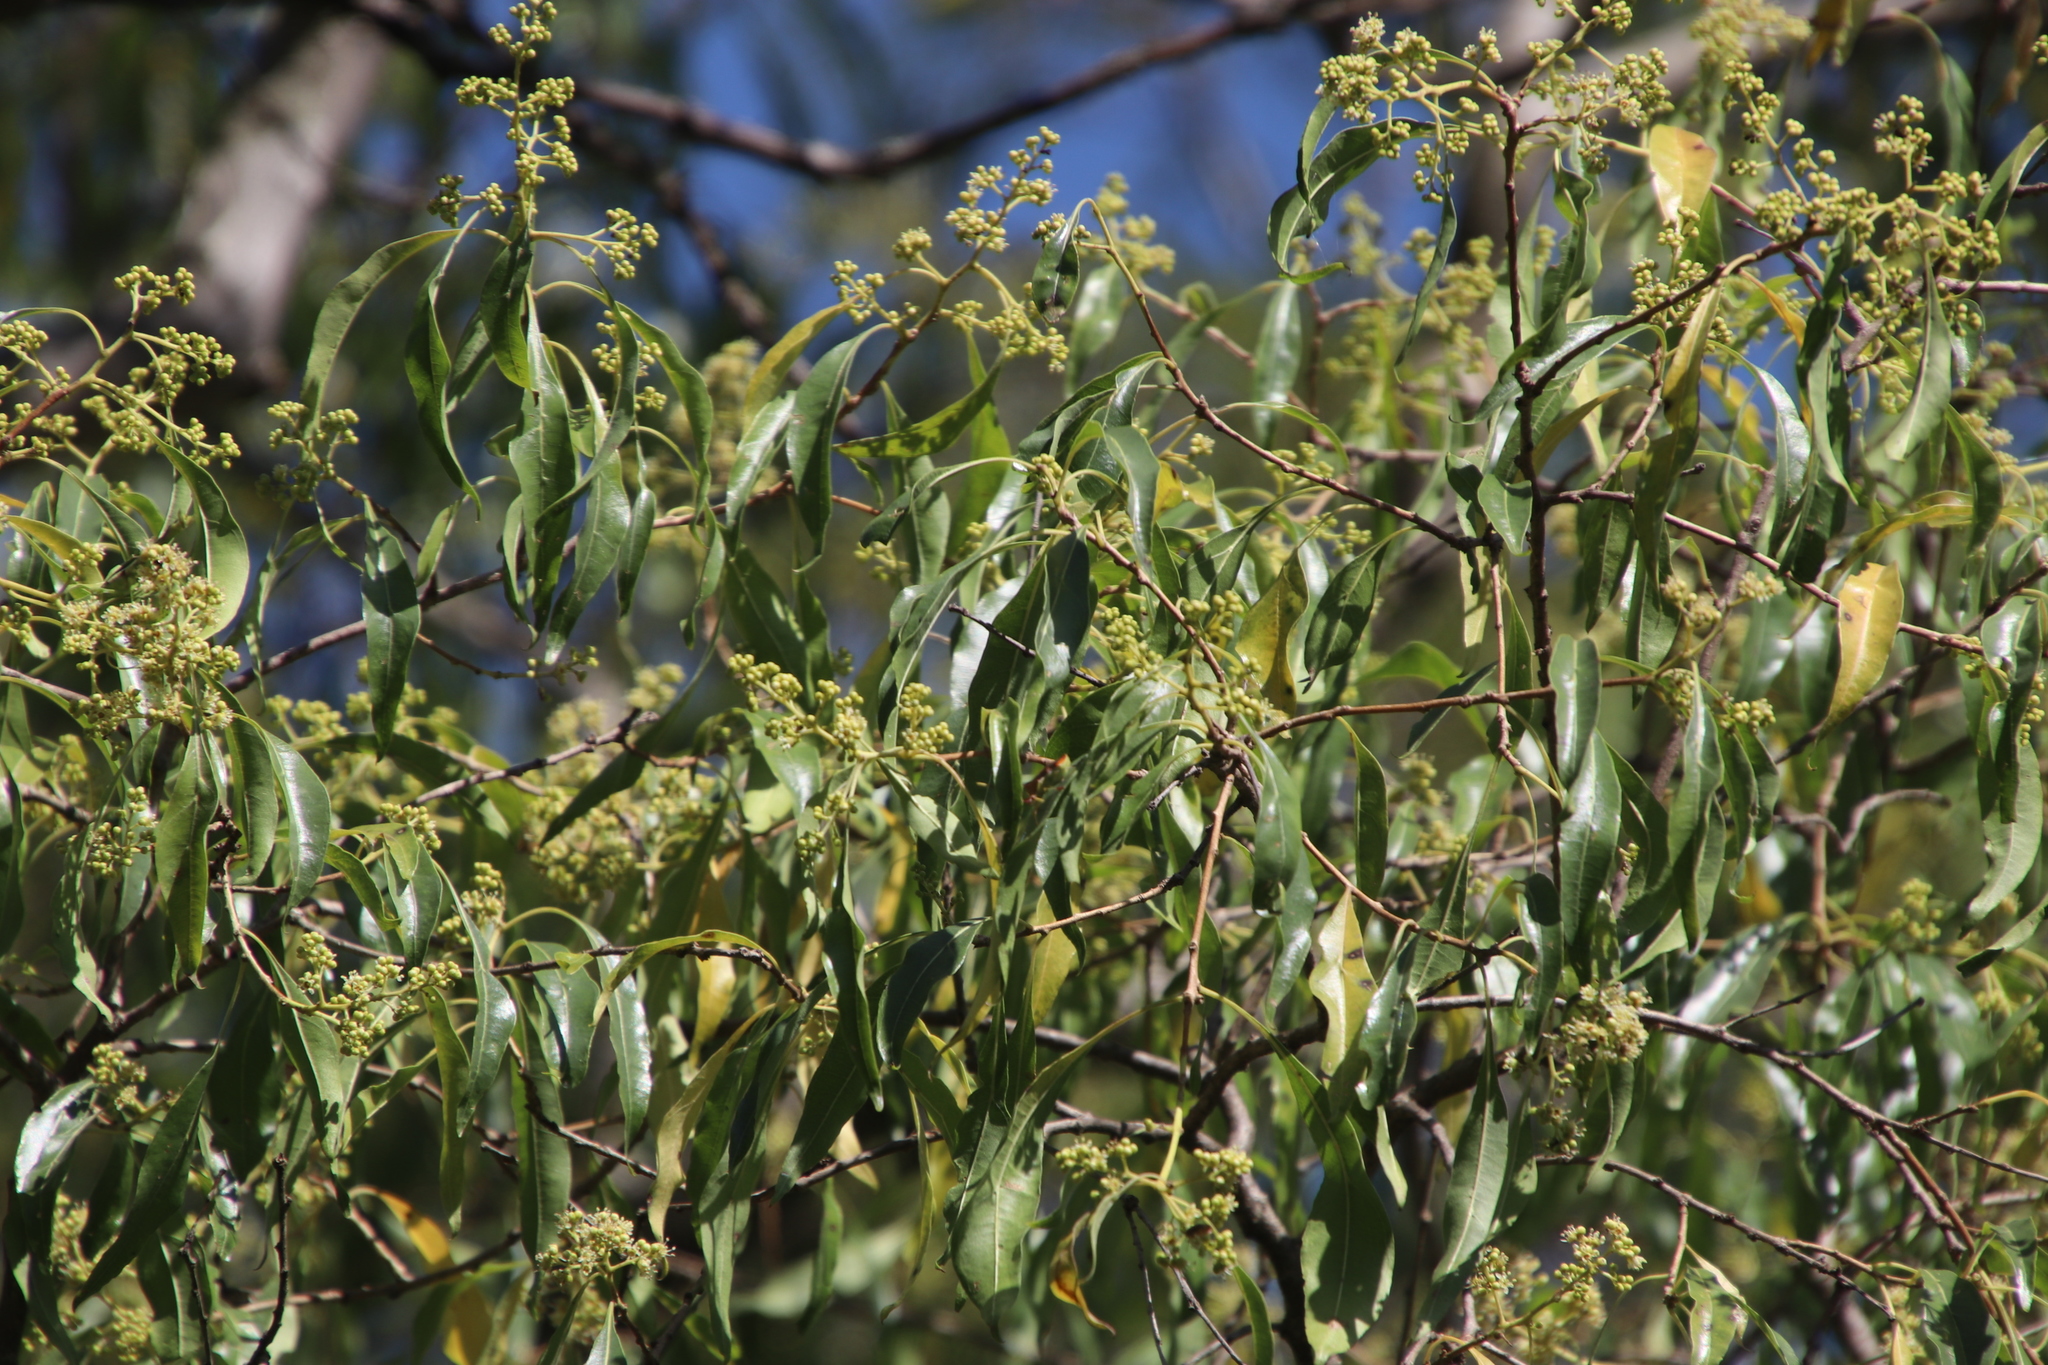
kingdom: Plantae
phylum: Tracheophyta
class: Magnoliopsida
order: Myrtales
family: Myrtaceae
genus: Heteropyxis
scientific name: Heteropyxis natalensis
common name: Lavender tree
